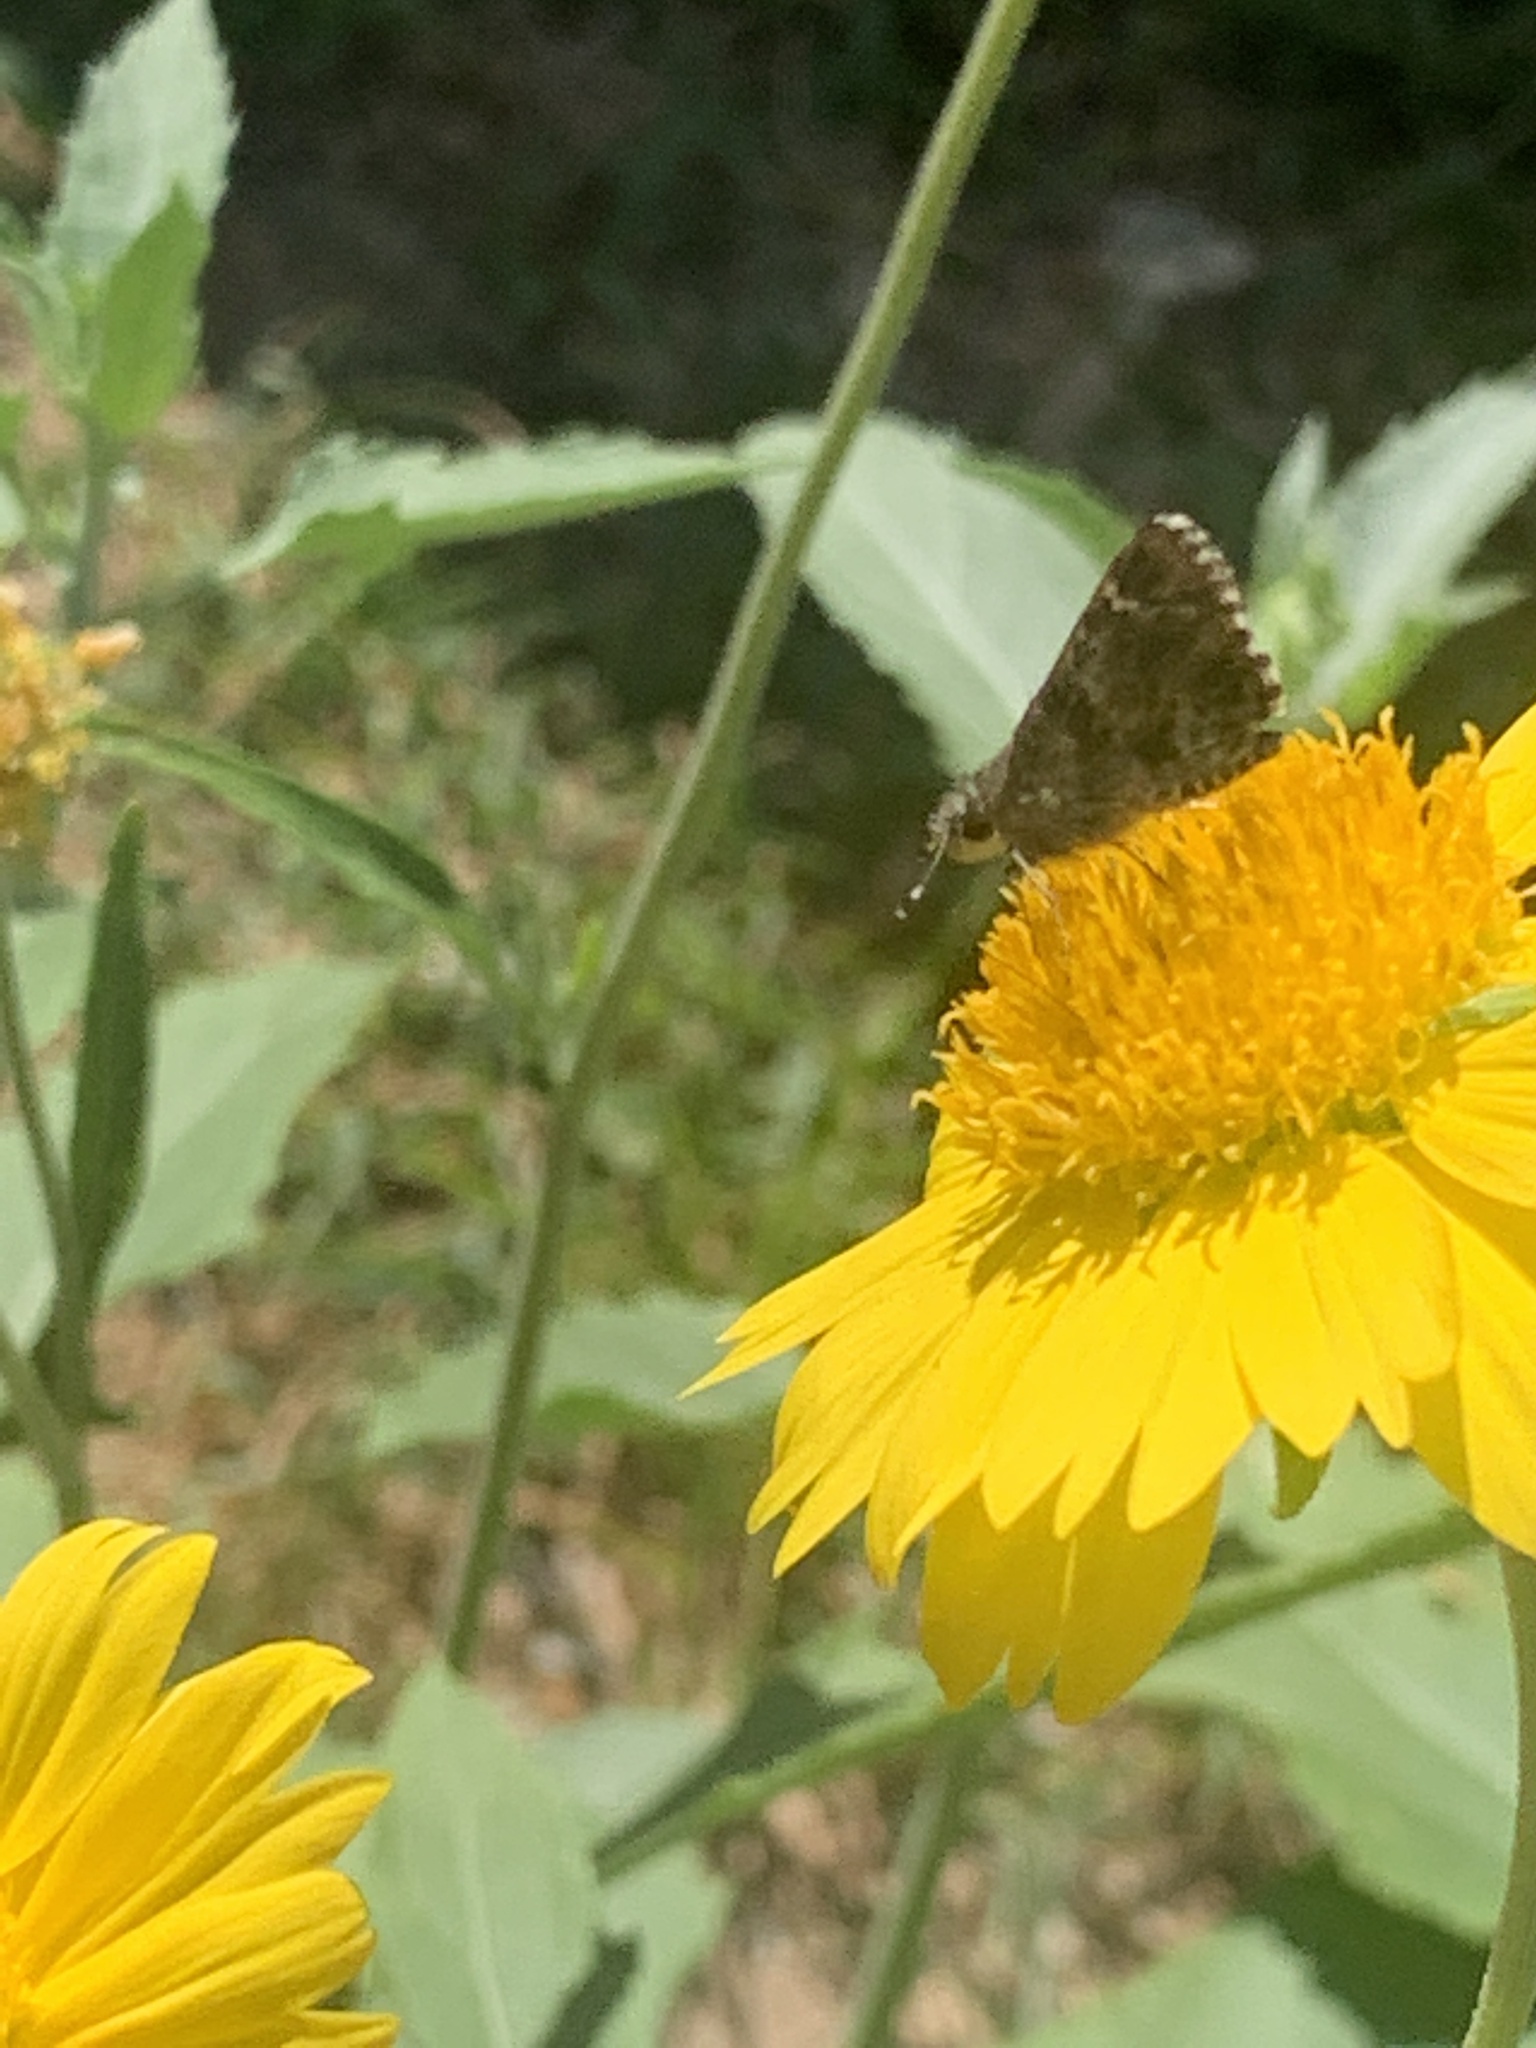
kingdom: Animalia
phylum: Arthropoda
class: Insecta
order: Lepidoptera
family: Hesperiidae
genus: Mastor
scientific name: Mastor nysa
